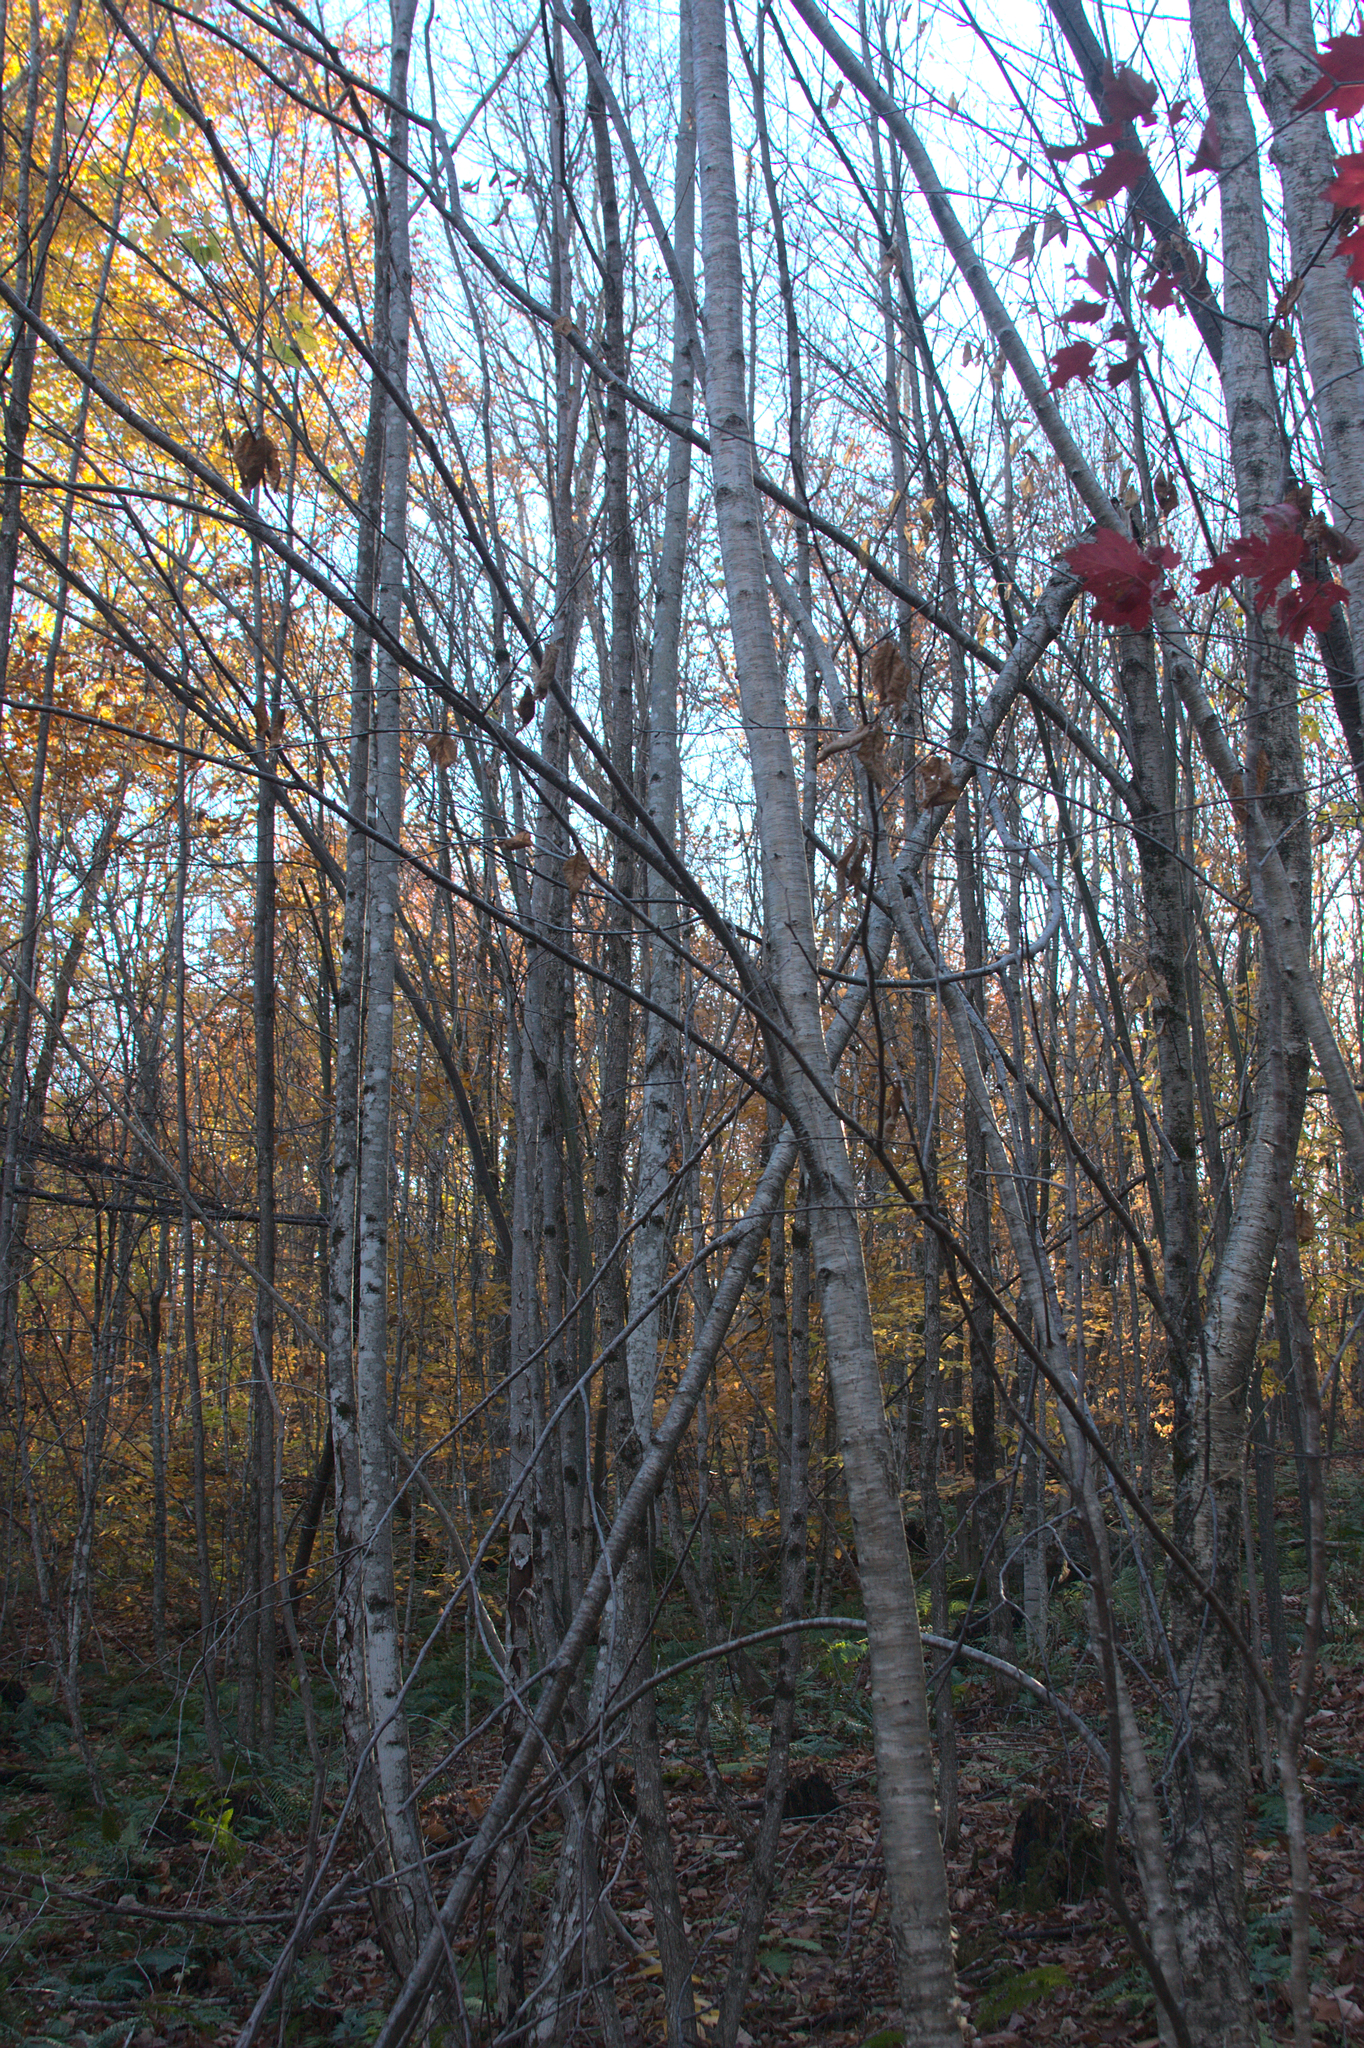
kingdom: Plantae
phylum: Tracheophyta
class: Magnoliopsida
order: Fagales
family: Betulaceae
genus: Betula
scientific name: Betula alleghaniensis
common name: Yellow birch
